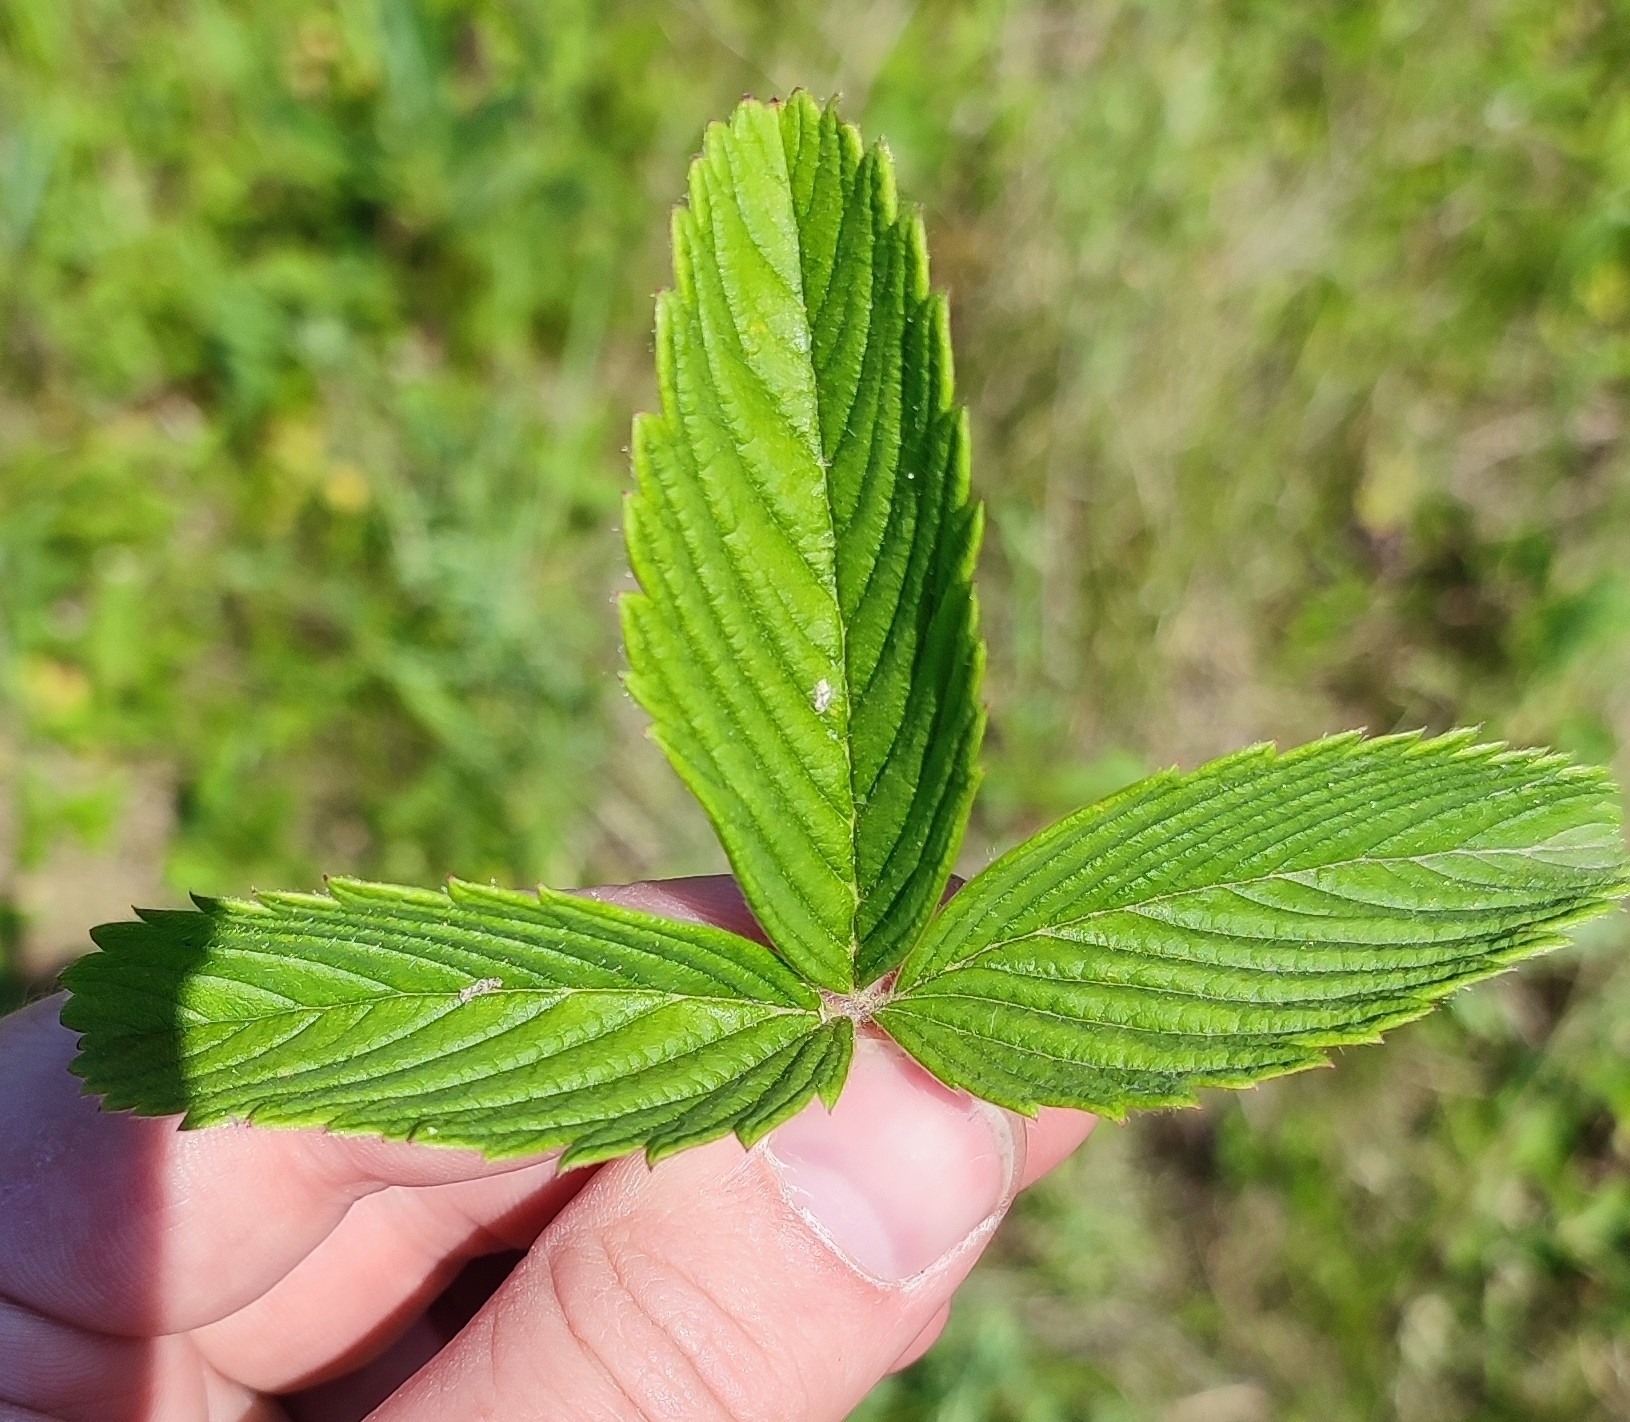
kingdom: Plantae
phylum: Tracheophyta
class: Magnoliopsida
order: Rosales
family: Rosaceae
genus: Fragaria
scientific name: Fragaria viridis
